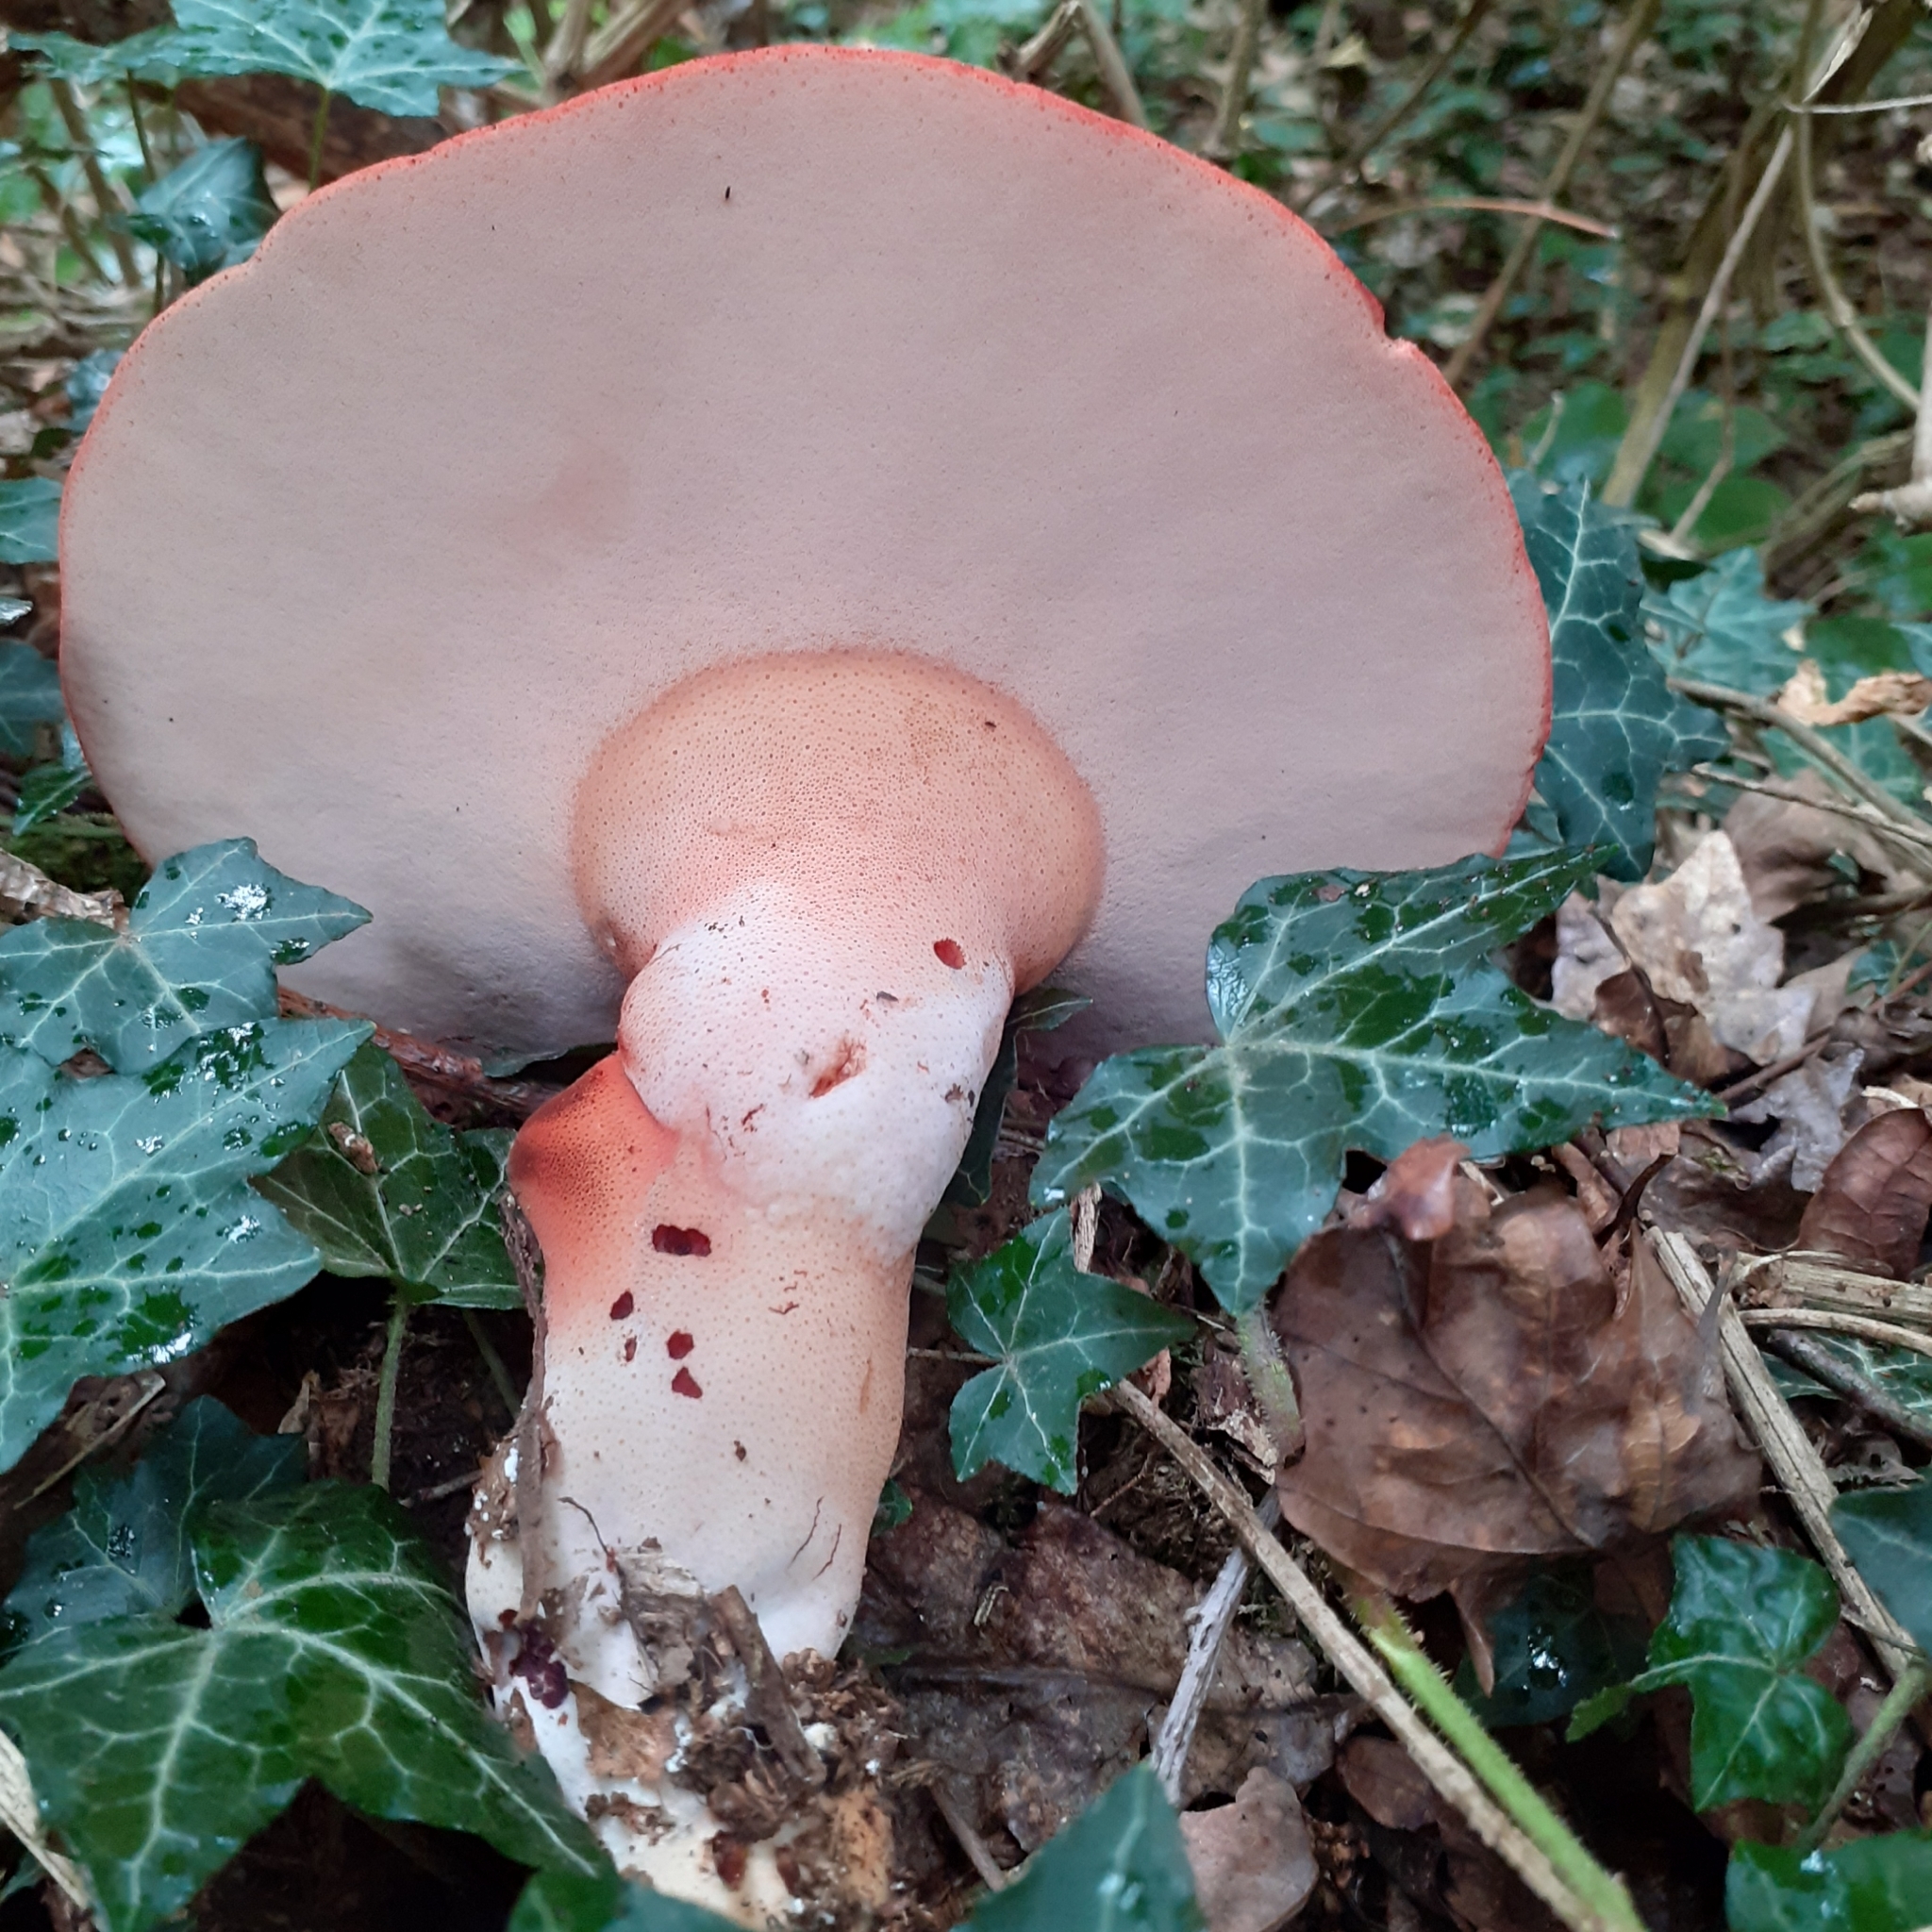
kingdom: Fungi
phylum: Basidiomycota
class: Agaricomycetes
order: Agaricales
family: Fistulinaceae
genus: Fistulina
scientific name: Fistulina hepatica
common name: Beef-steak fungus
